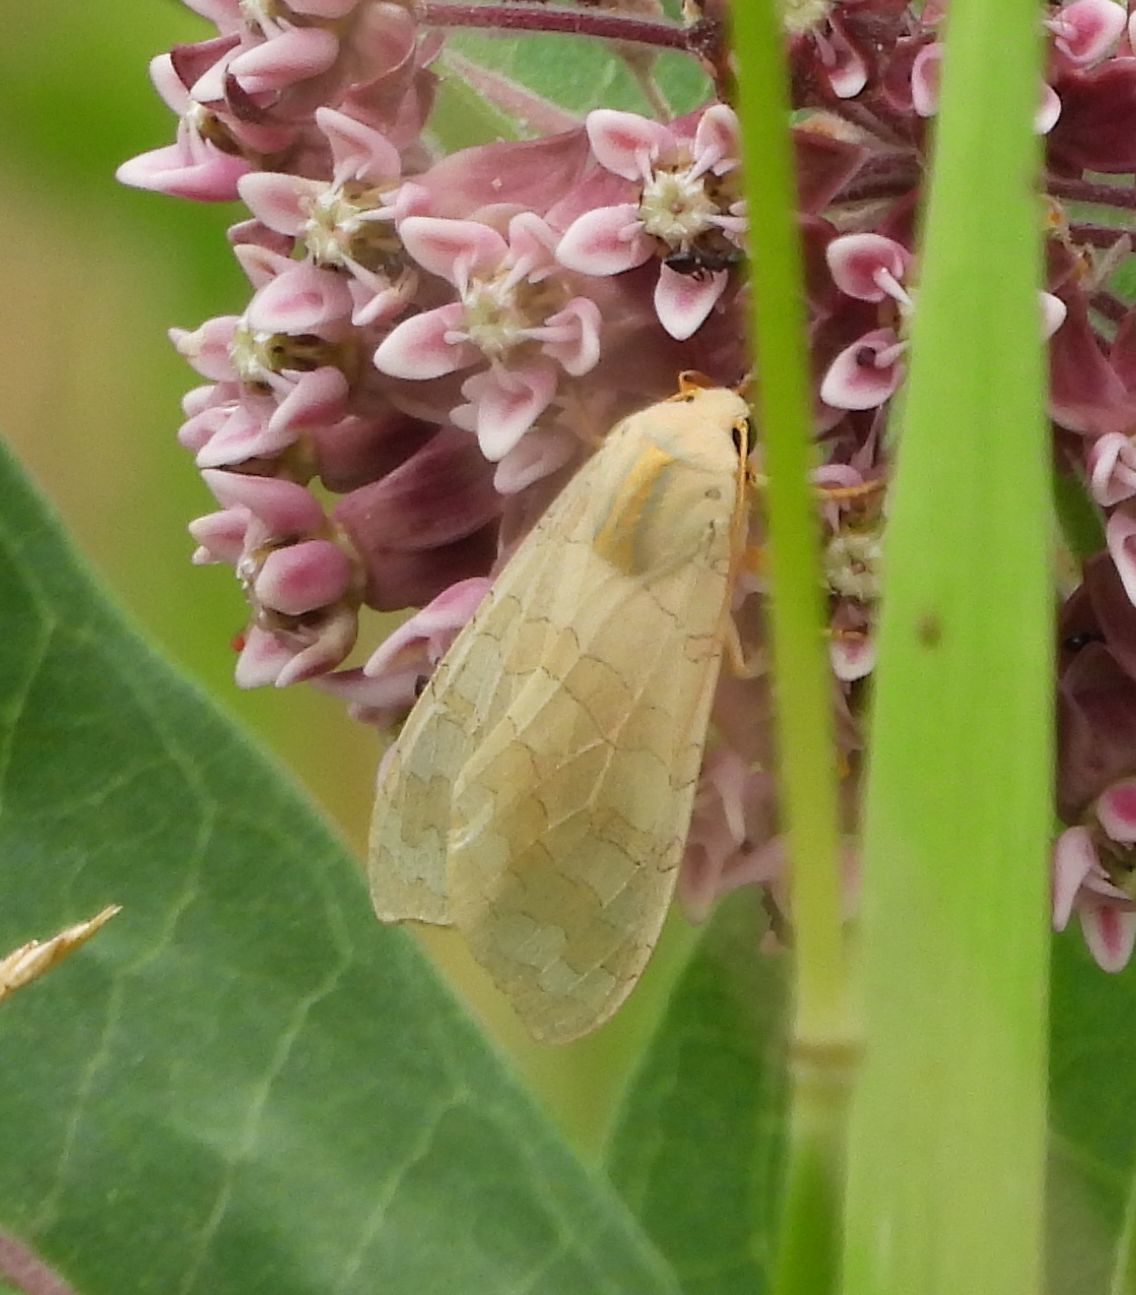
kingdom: Animalia
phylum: Arthropoda
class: Insecta
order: Lepidoptera
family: Erebidae
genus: Halysidota
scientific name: Halysidota tessellaris
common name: Banded tussock moth
